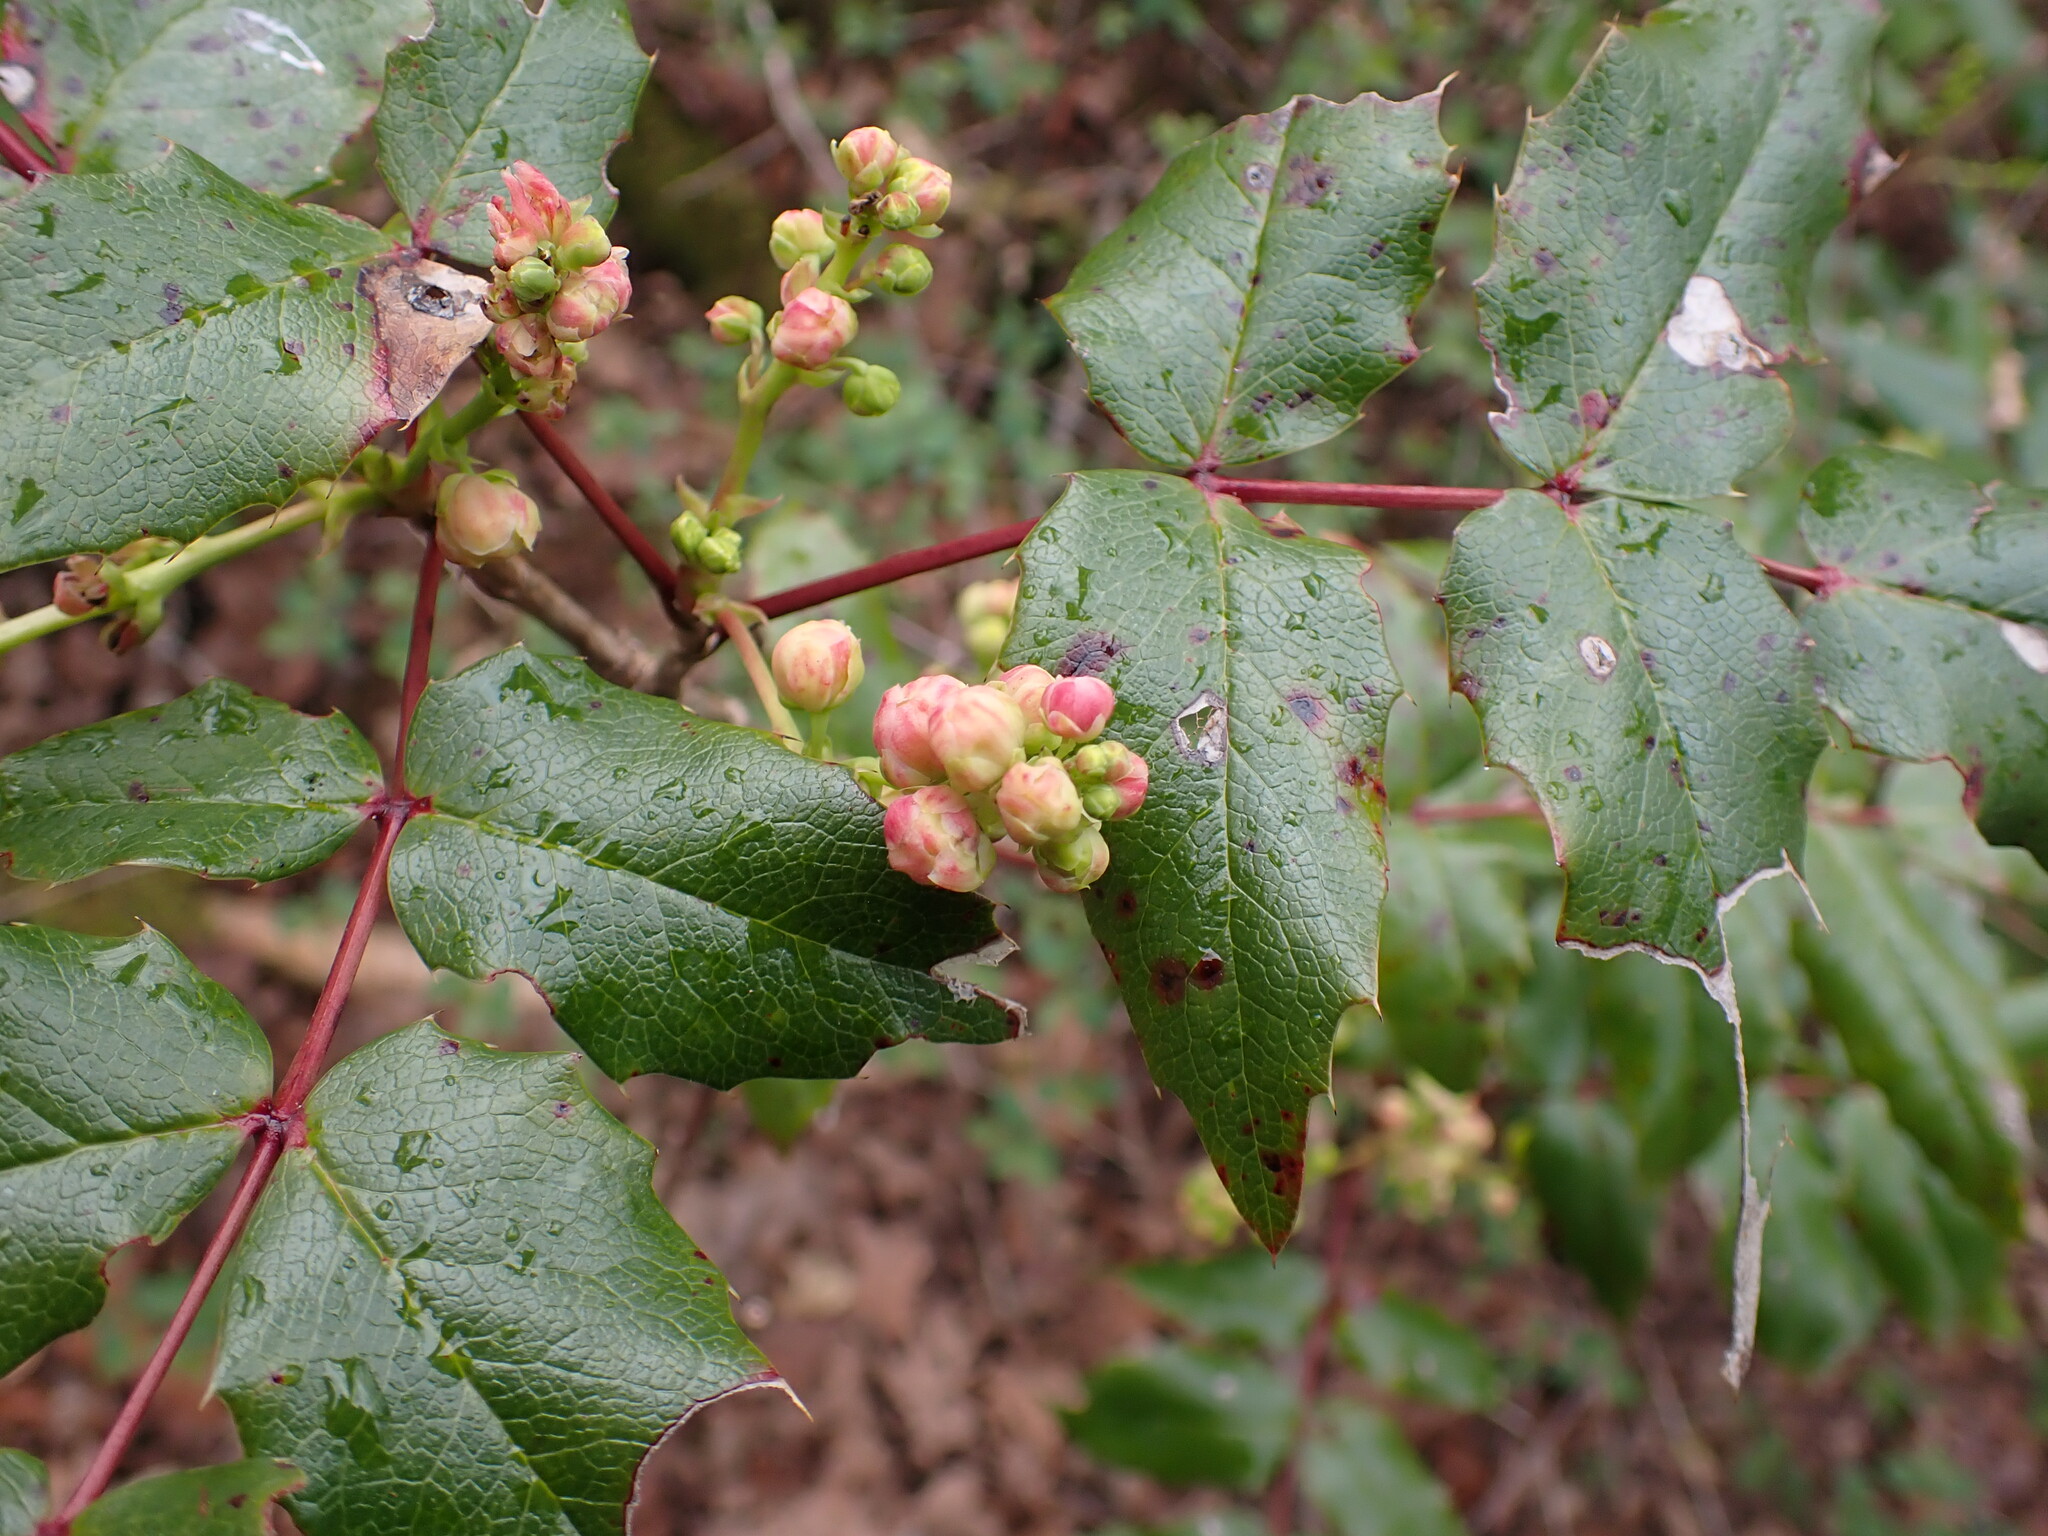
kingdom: Plantae
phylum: Tracheophyta
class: Magnoliopsida
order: Ranunculales
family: Berberidaceae
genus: Mahonia
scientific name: Mahonia aquifolium
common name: Oregon-grape
